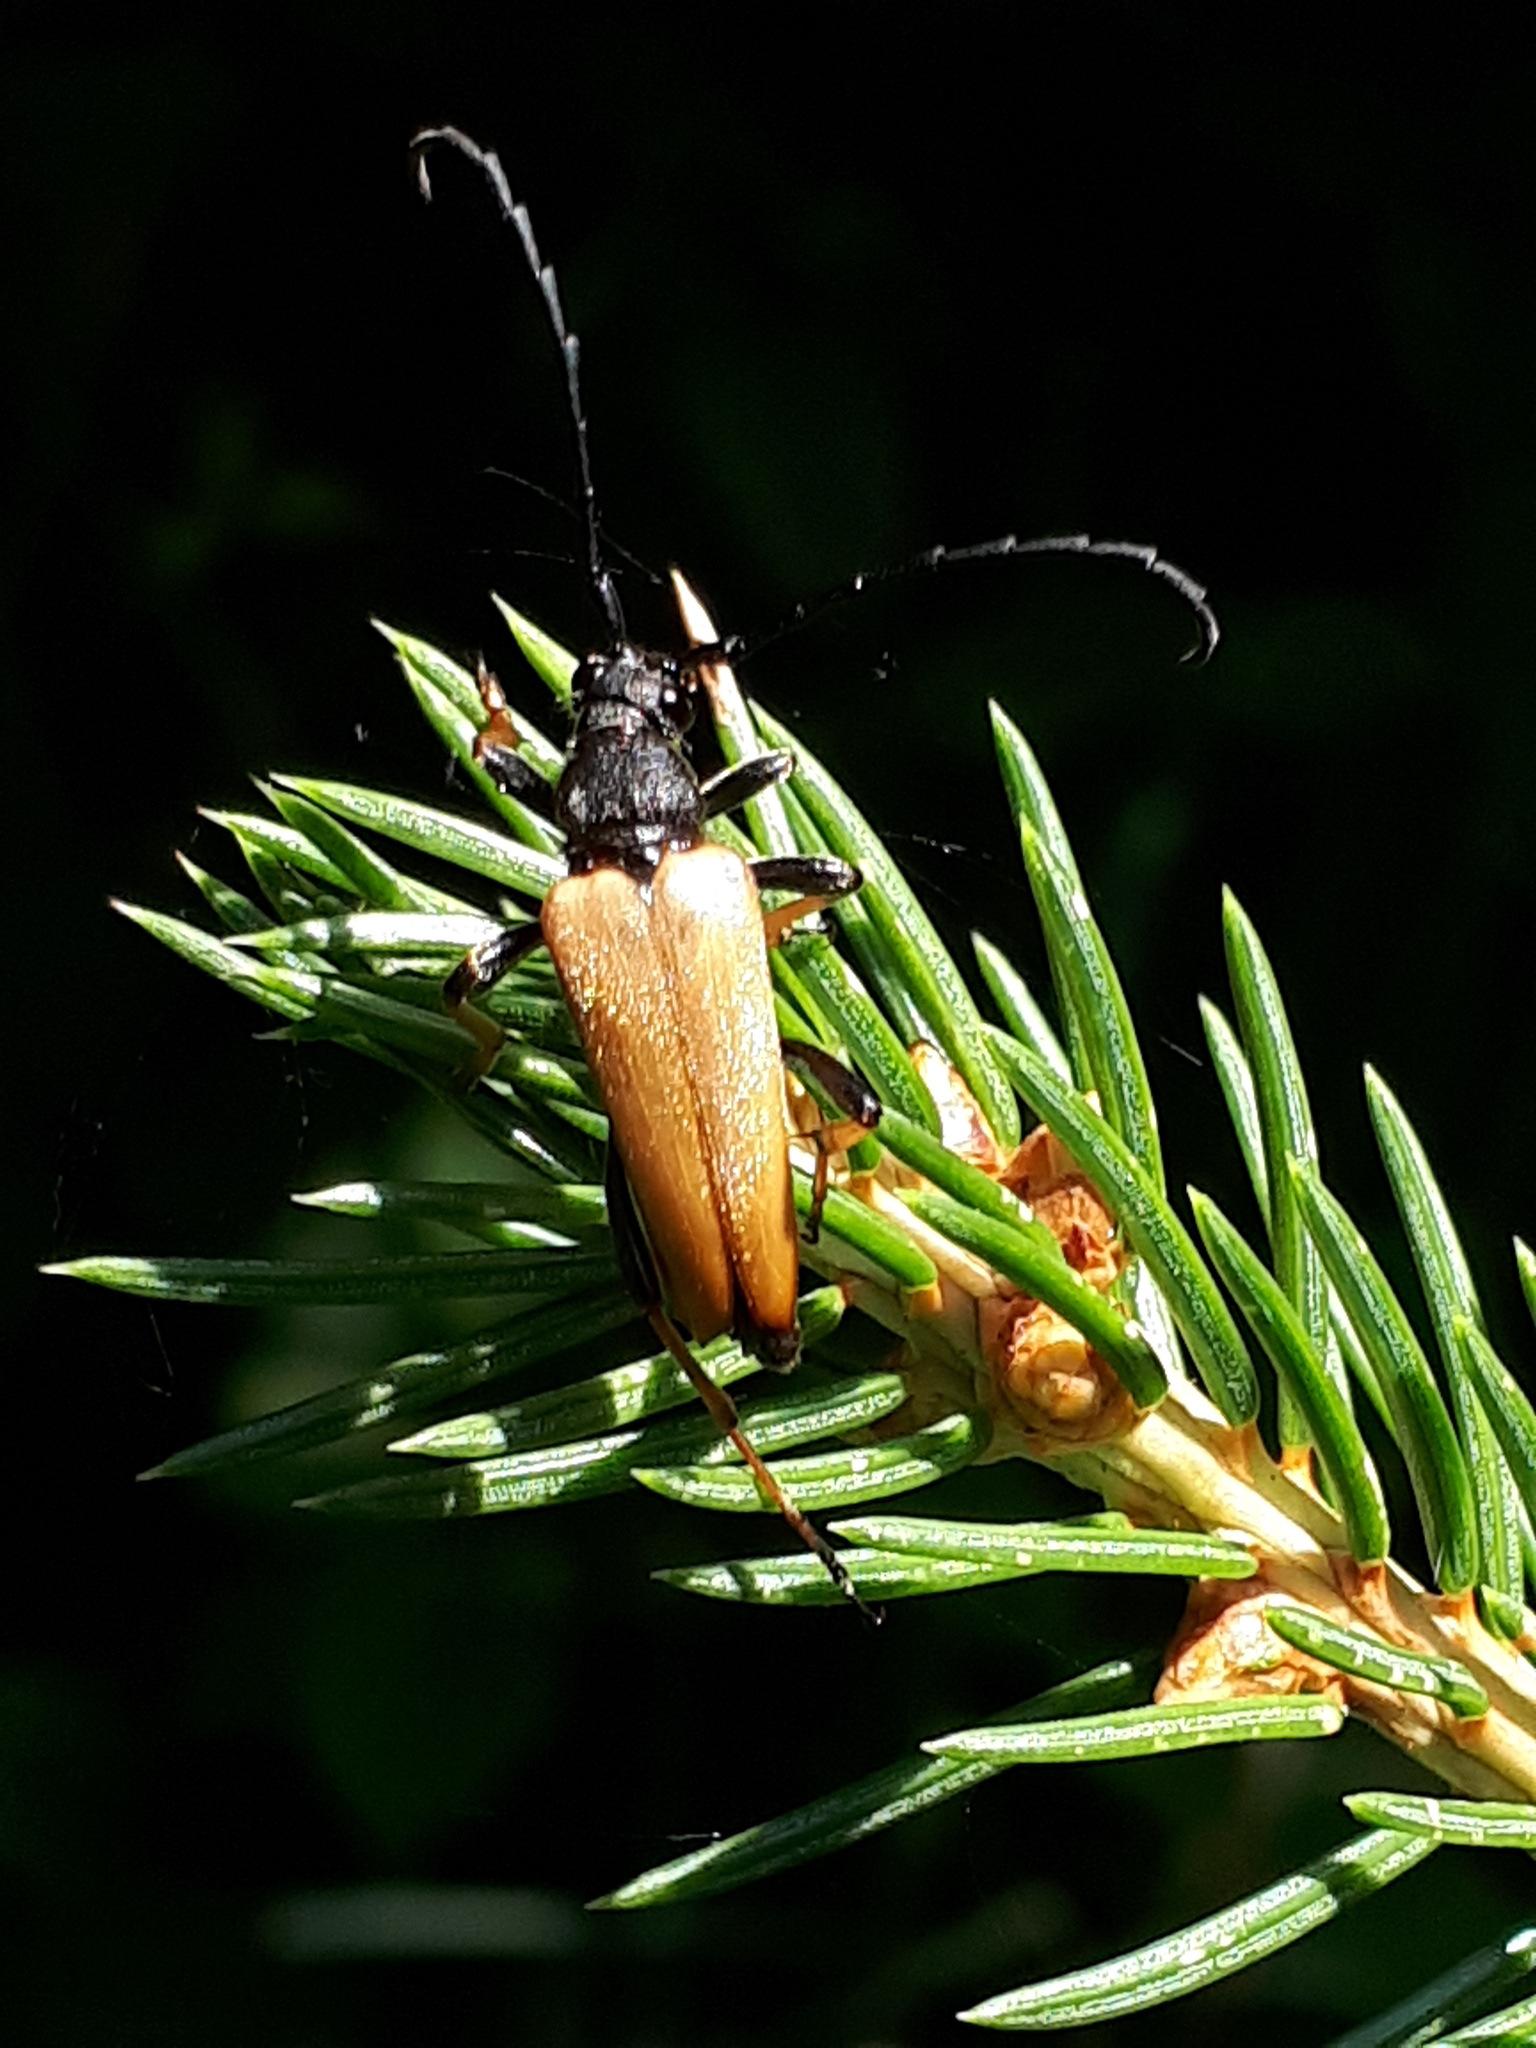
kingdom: Animalia
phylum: Arthropoda
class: Insecta
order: Coleoptera
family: Cerambycidae
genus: Stictoleptura
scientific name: Stictoleptura rubra
